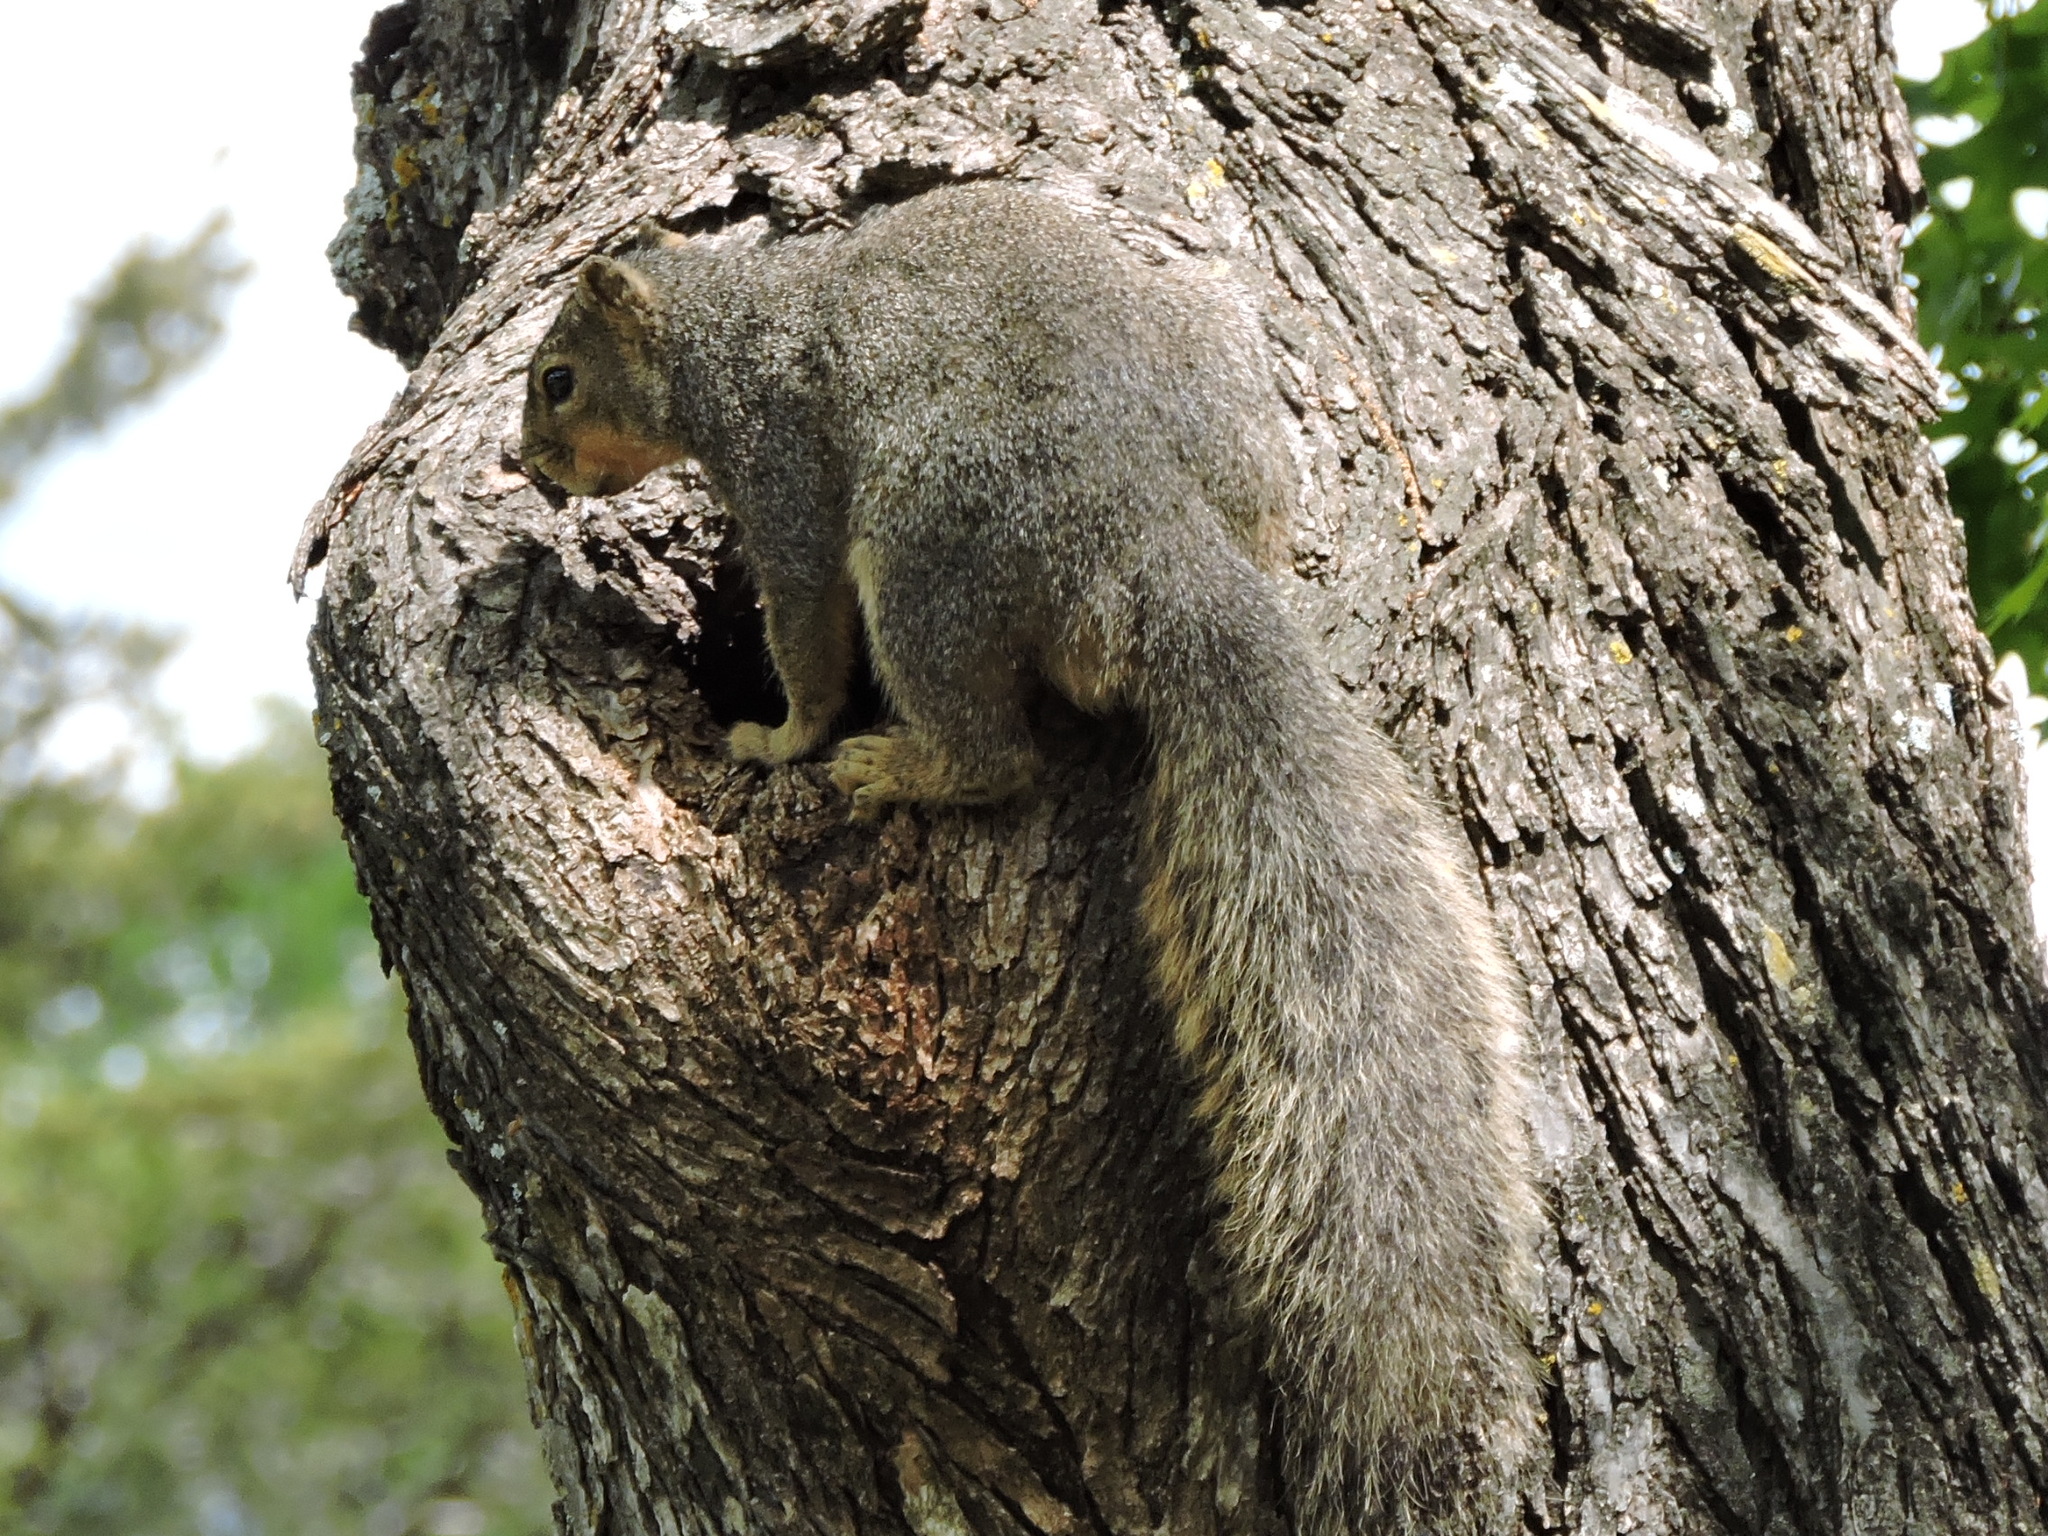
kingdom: Animalia
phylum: Chordata
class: Mammalia
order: Rodentia
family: Sciuridae
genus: Sciurus
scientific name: Sciurus niger
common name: Fox squirrel
